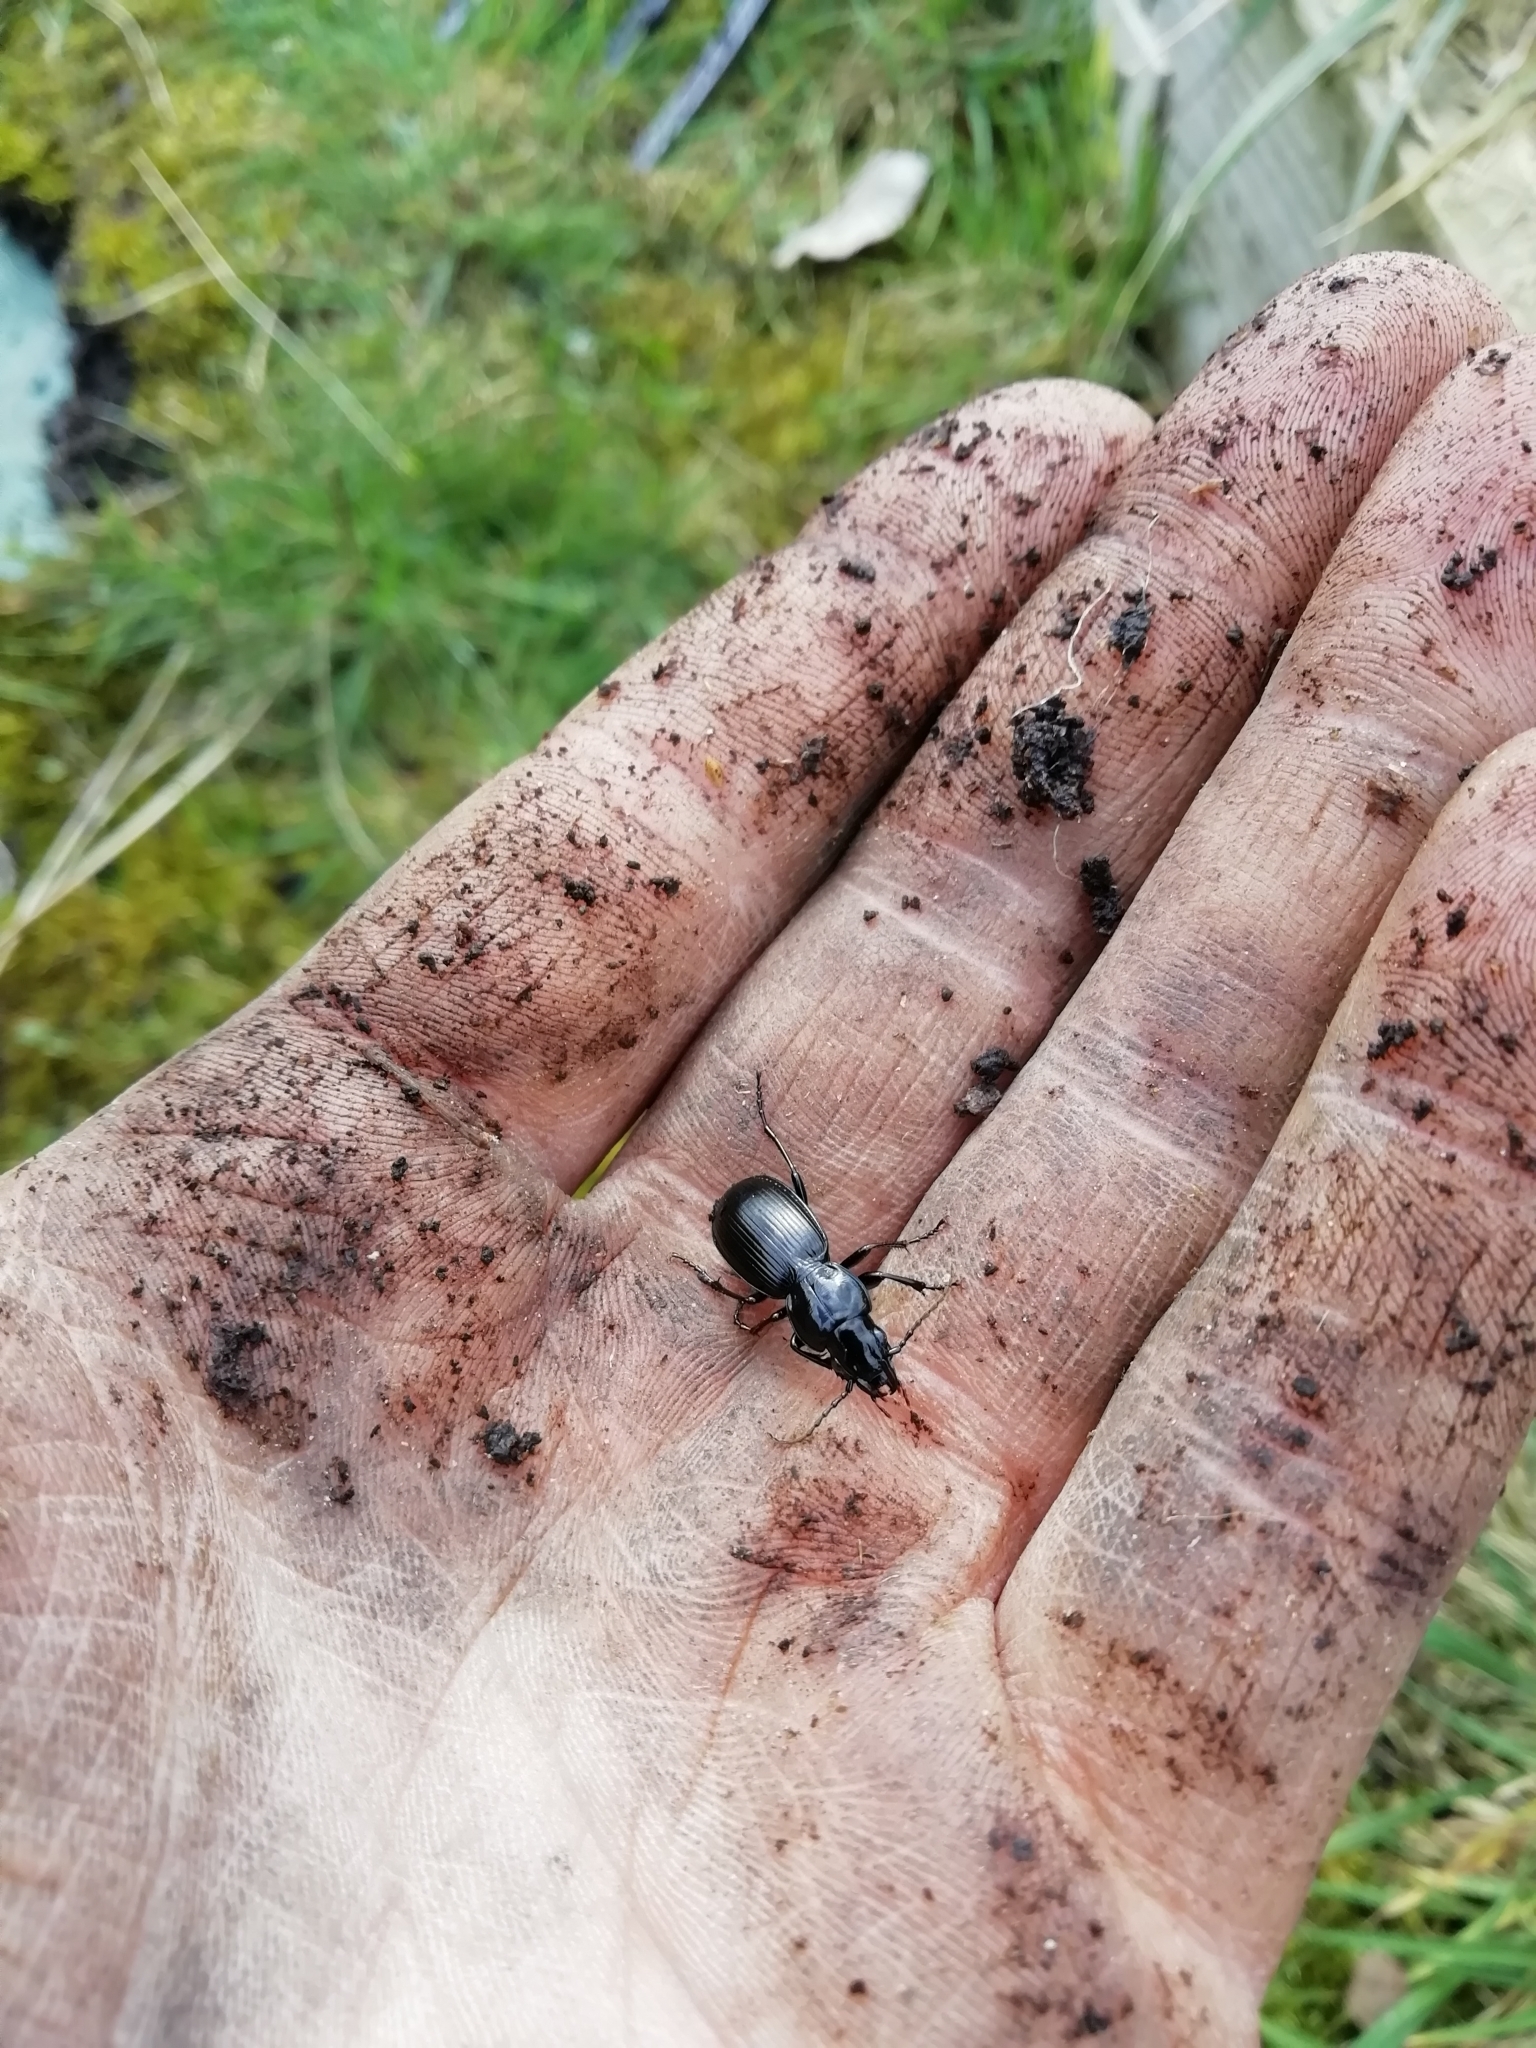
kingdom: Animalia
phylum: Arthropoda
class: Insecta
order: Coleoptera
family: Carabidae
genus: Pterostichus
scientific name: Pterostichus madidus
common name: Black clock
